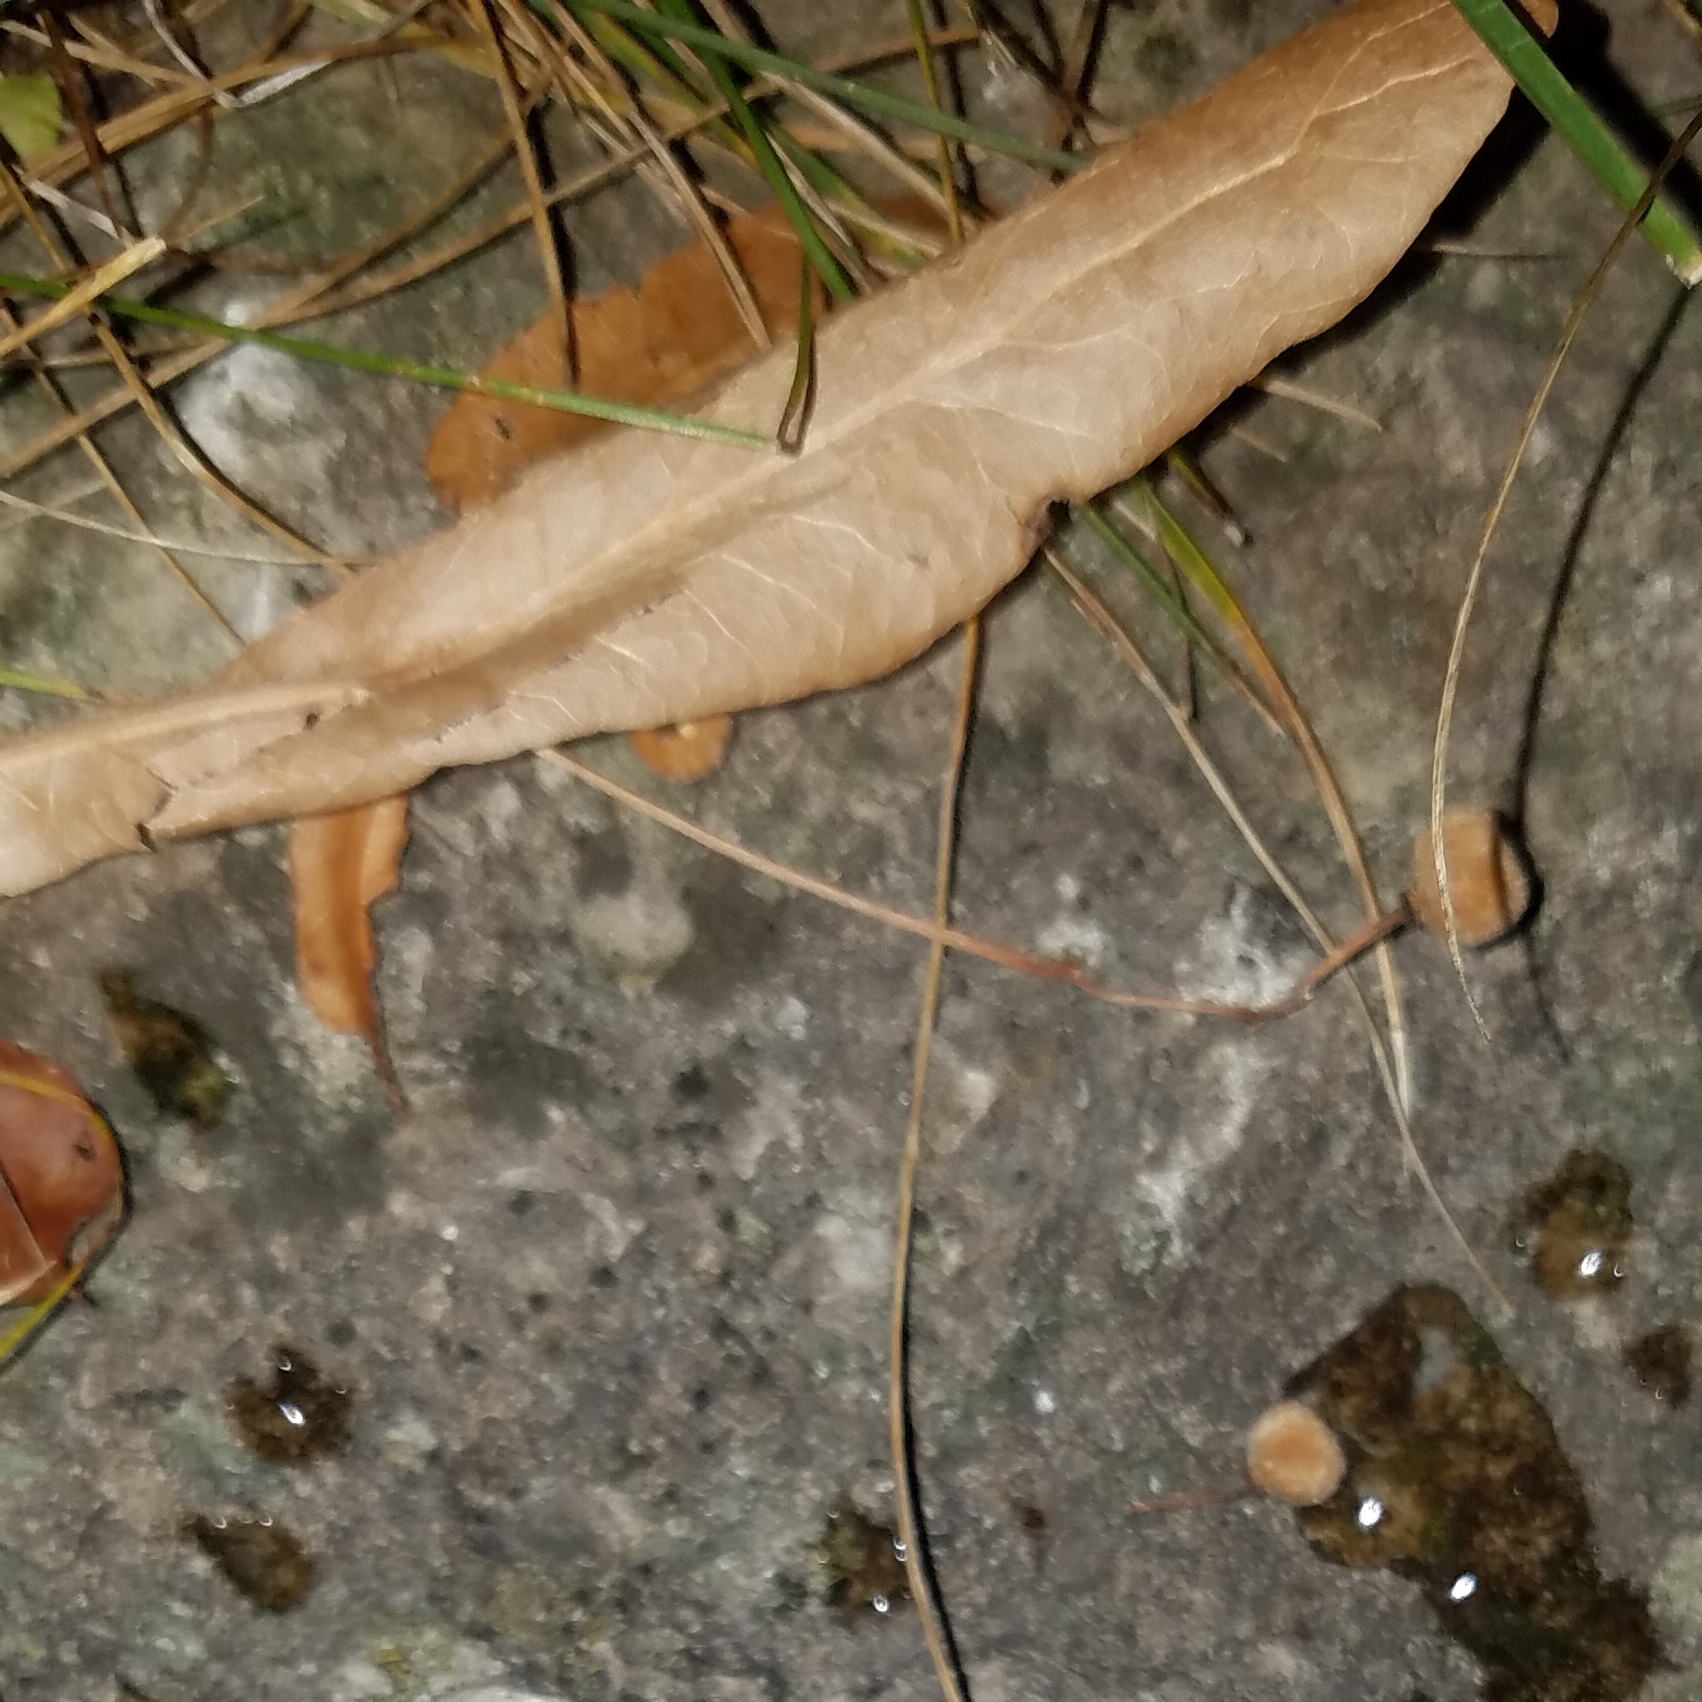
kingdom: Plantae
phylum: Tracheophyta
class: Magnoliopsida
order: Malvales
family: Malvaceae
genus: Tilia
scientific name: Tilia americana
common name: Basswood
